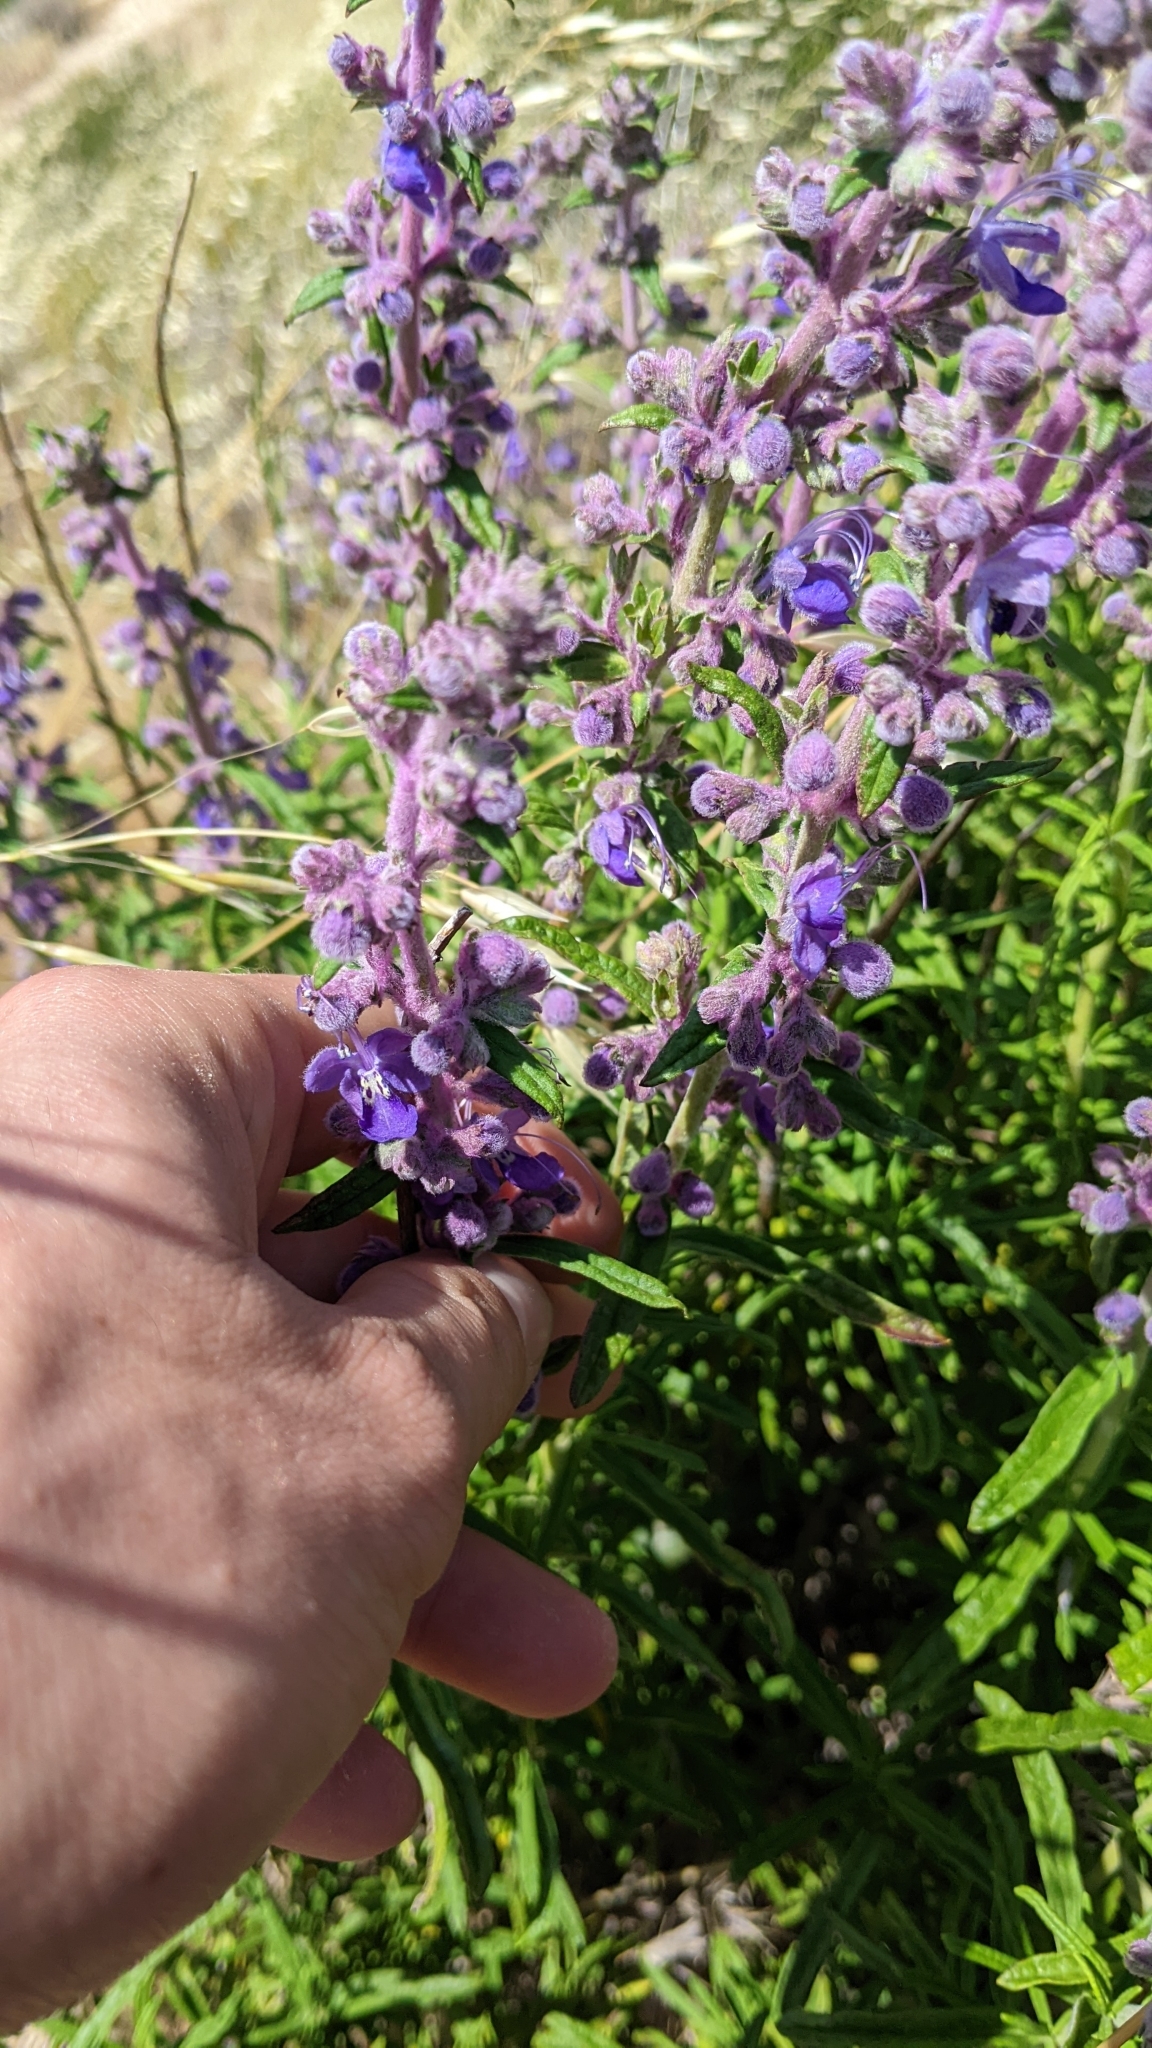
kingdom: Plantae
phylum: Tracheophyta
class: Magnoliopsida
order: Lamiales
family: Lamiaceae
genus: Trichostema
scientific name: Trichostema parishii
